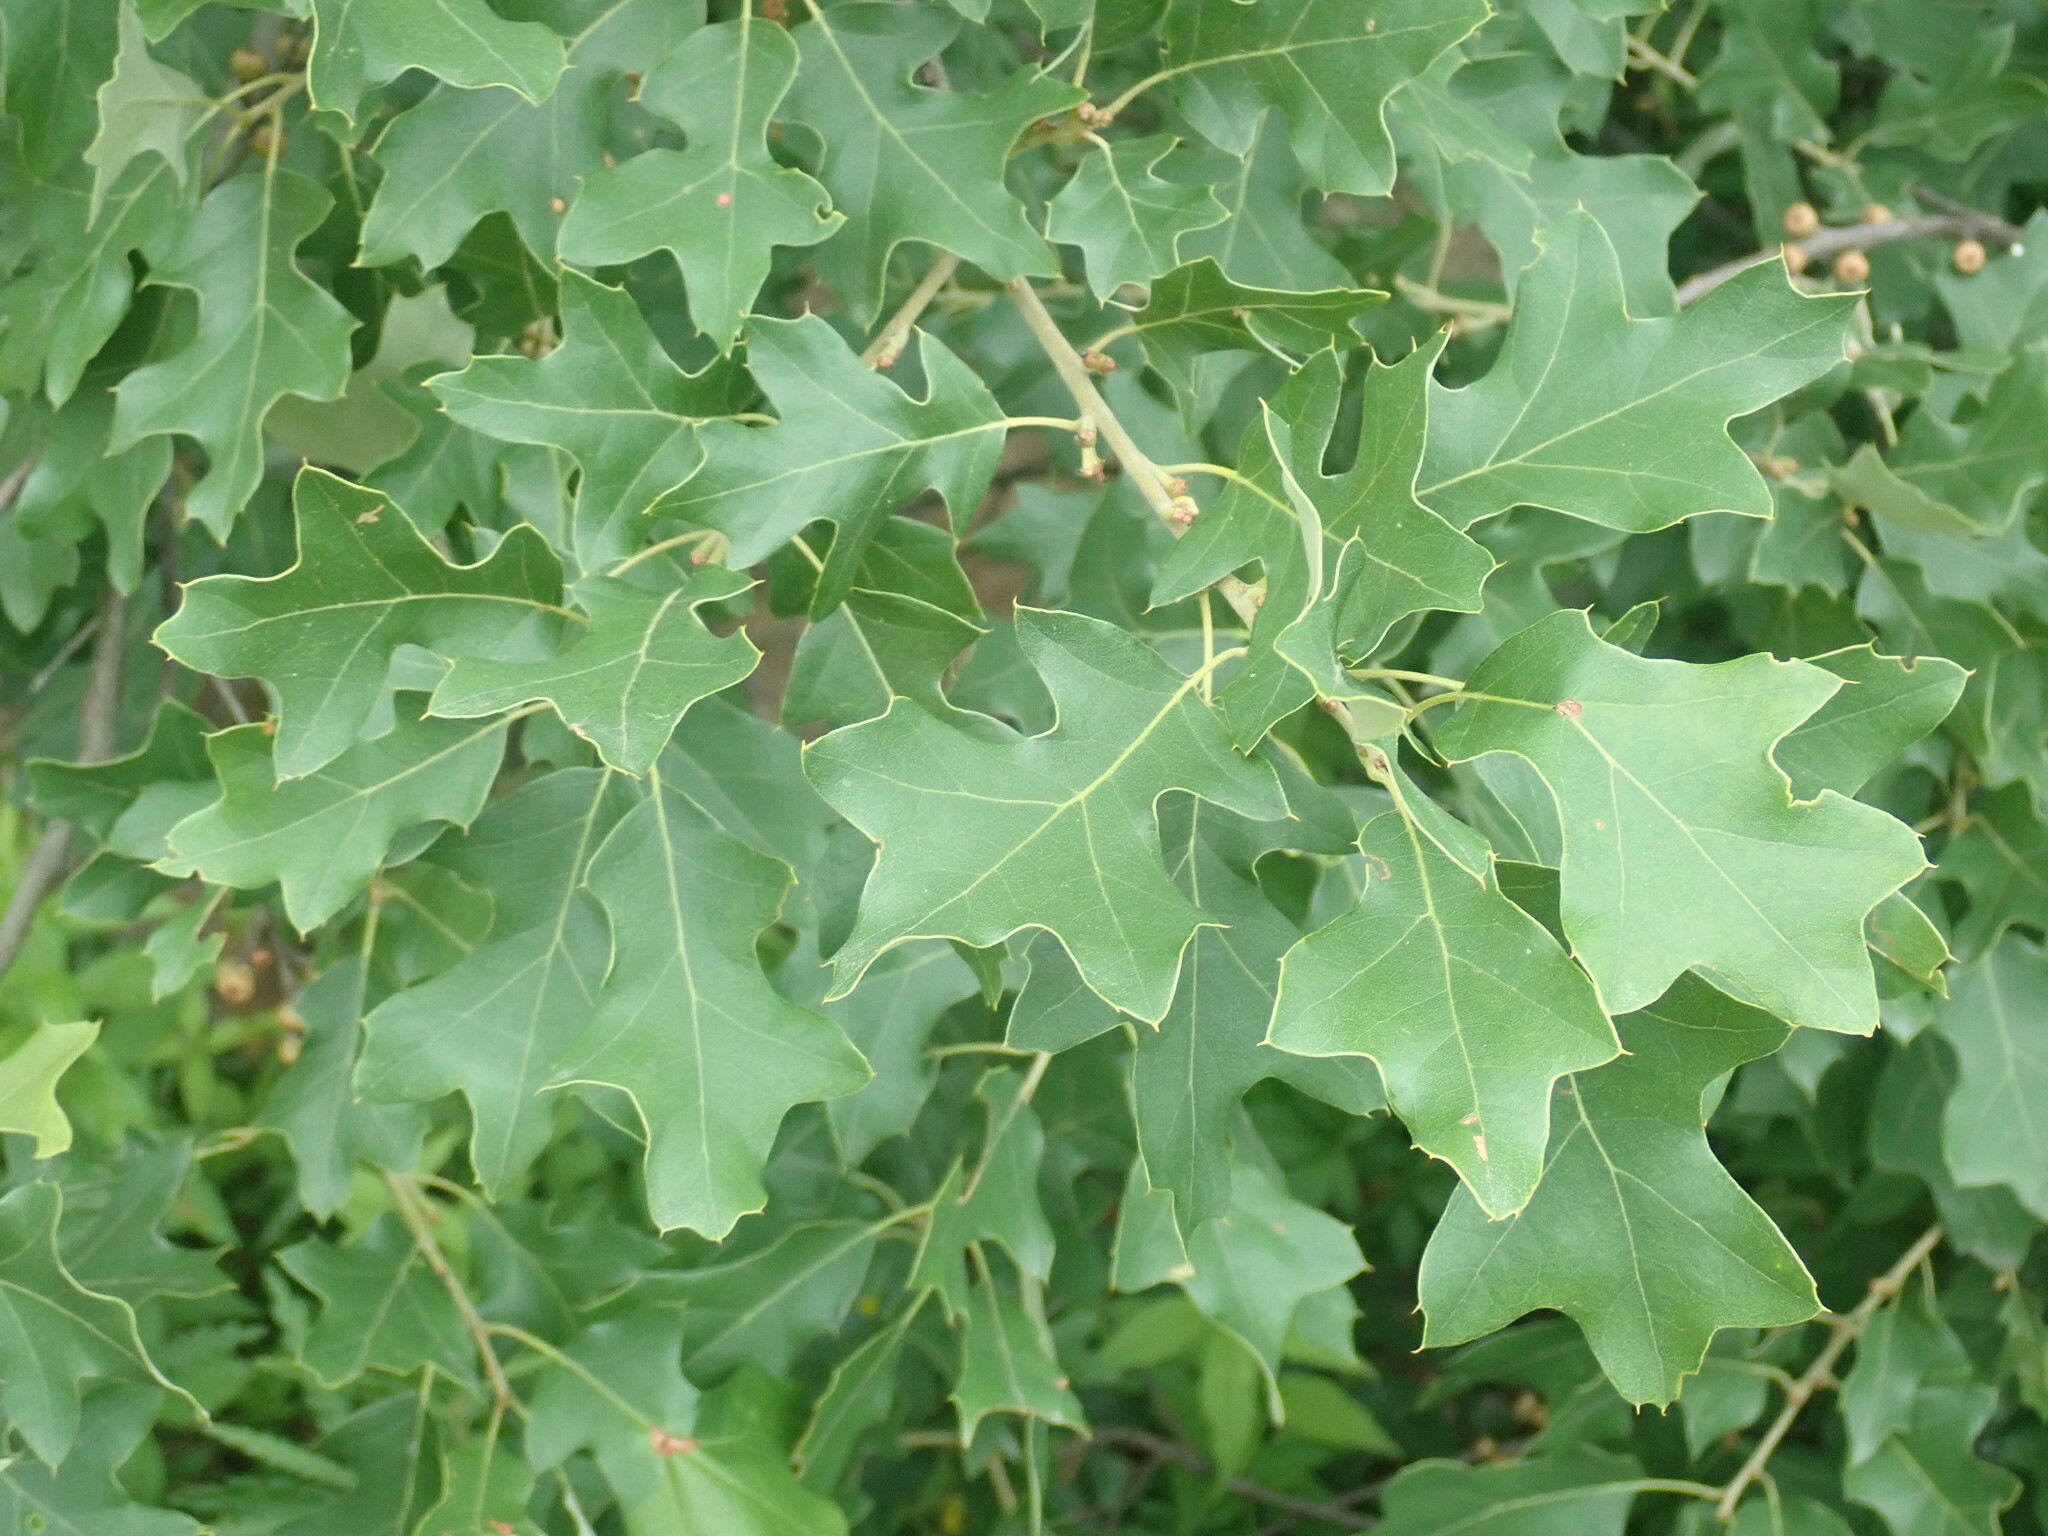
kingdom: Plantae
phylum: Tracheophyta
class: Magnoliopsida
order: Fagales
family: Fagaceae
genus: Quercus
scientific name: Quercus ilicifolia
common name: Bear oak
